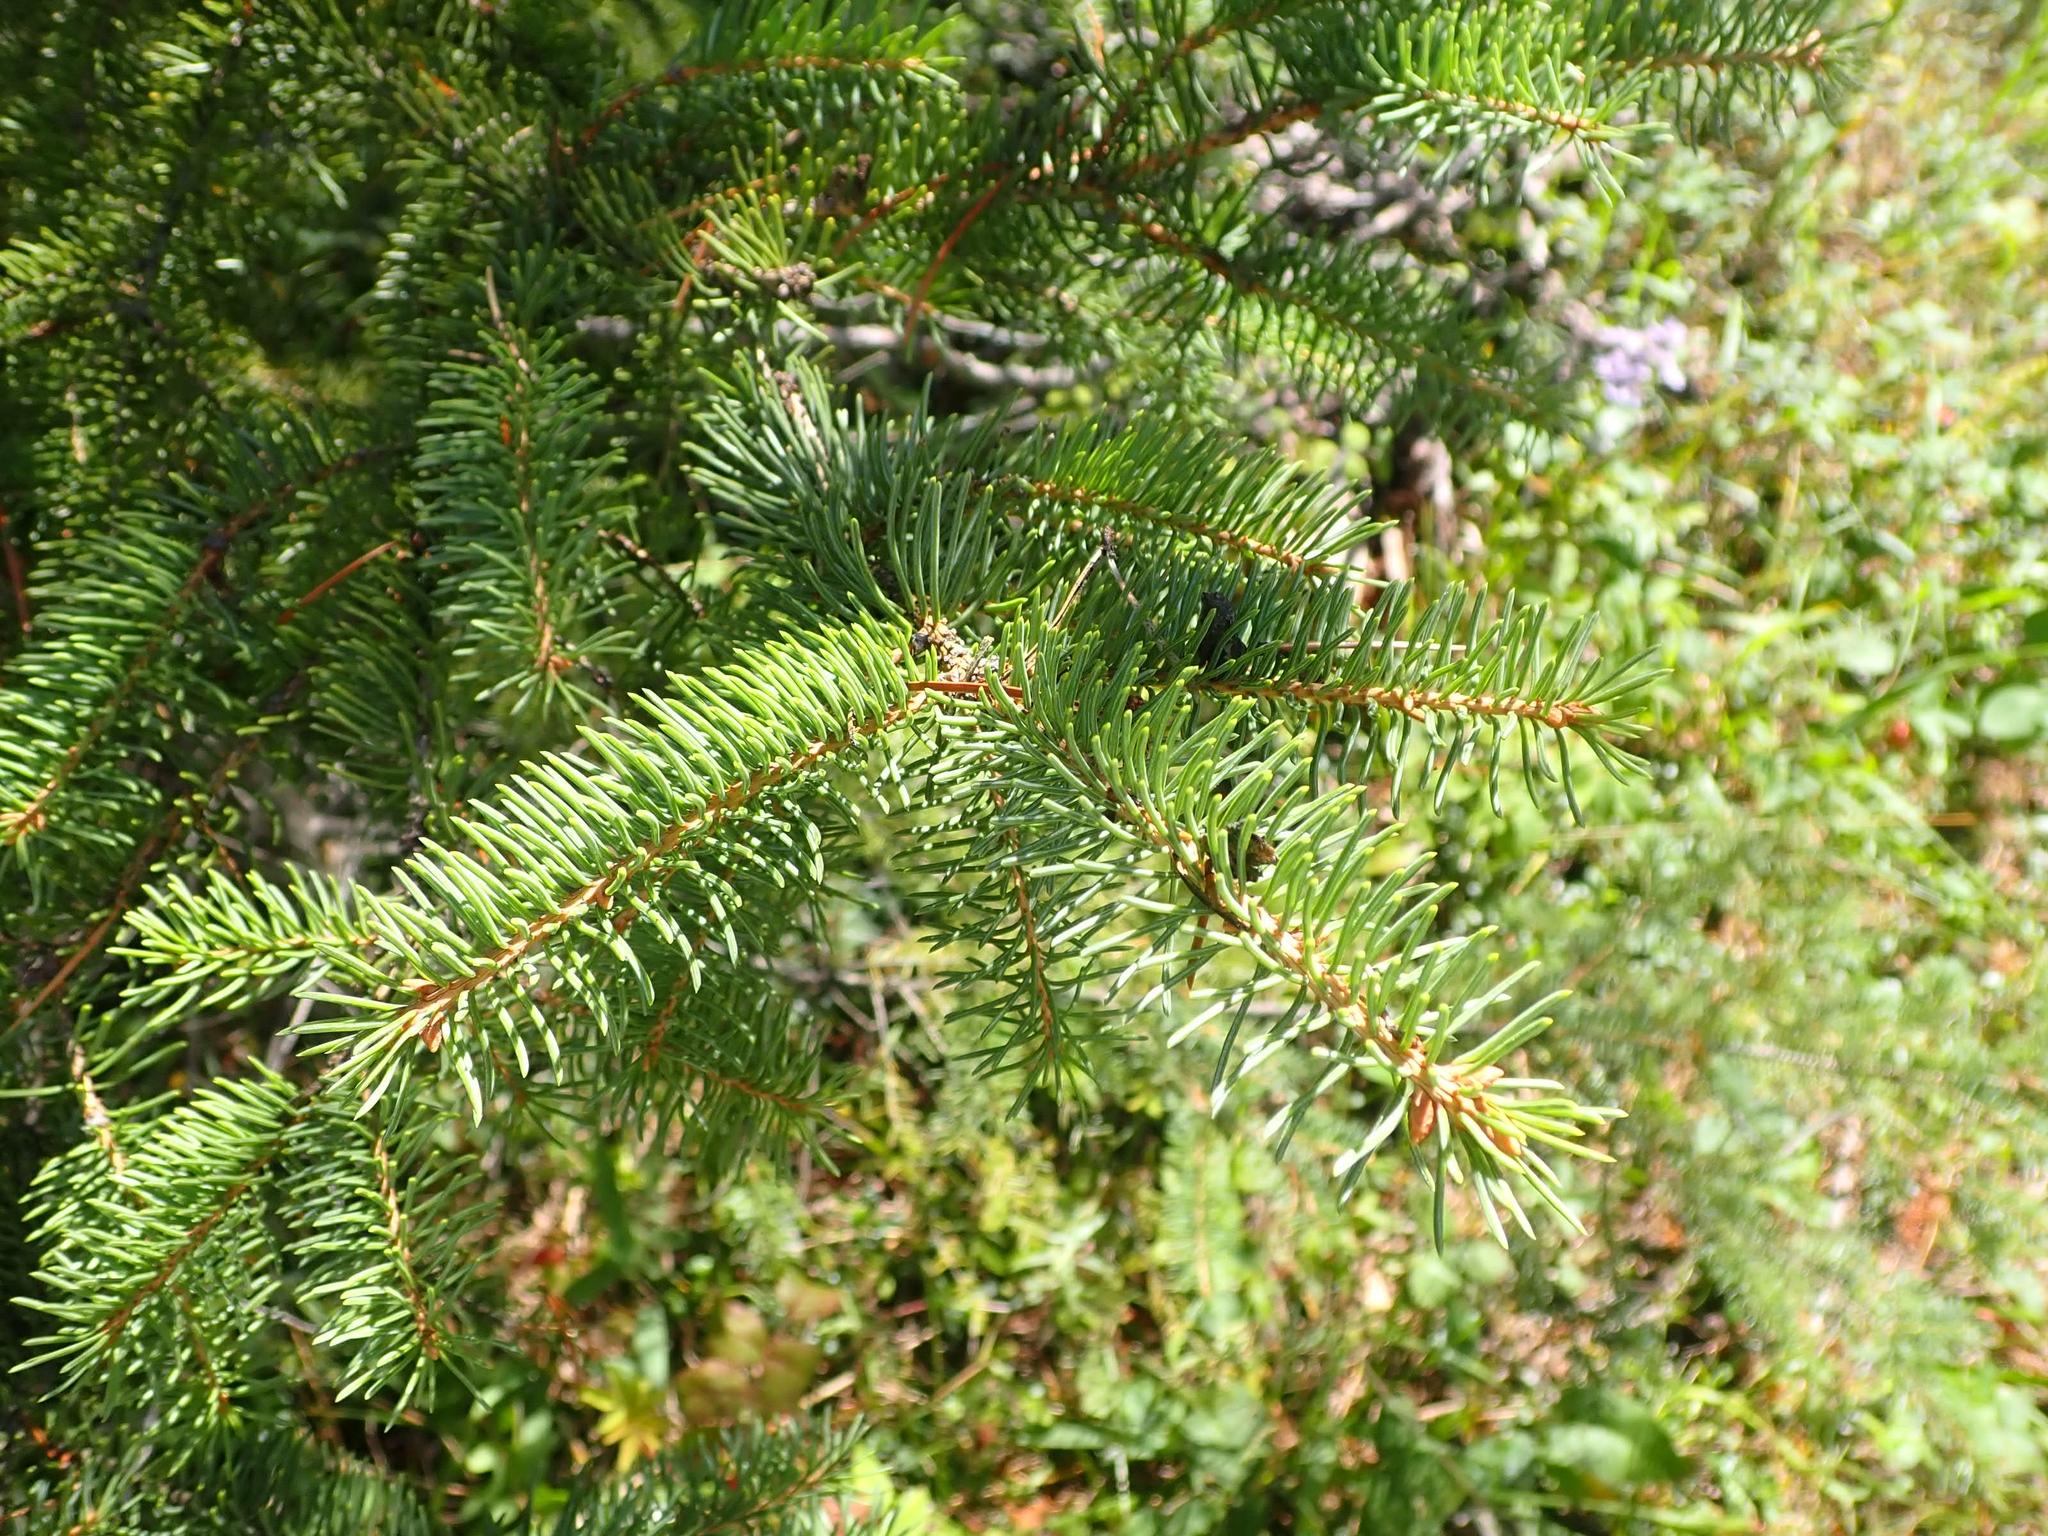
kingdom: Plantae
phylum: Tracheophyta
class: Pinopsida
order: Pinales
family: Pinaceae
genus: Picea
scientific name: Picea glauca
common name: White spruce
